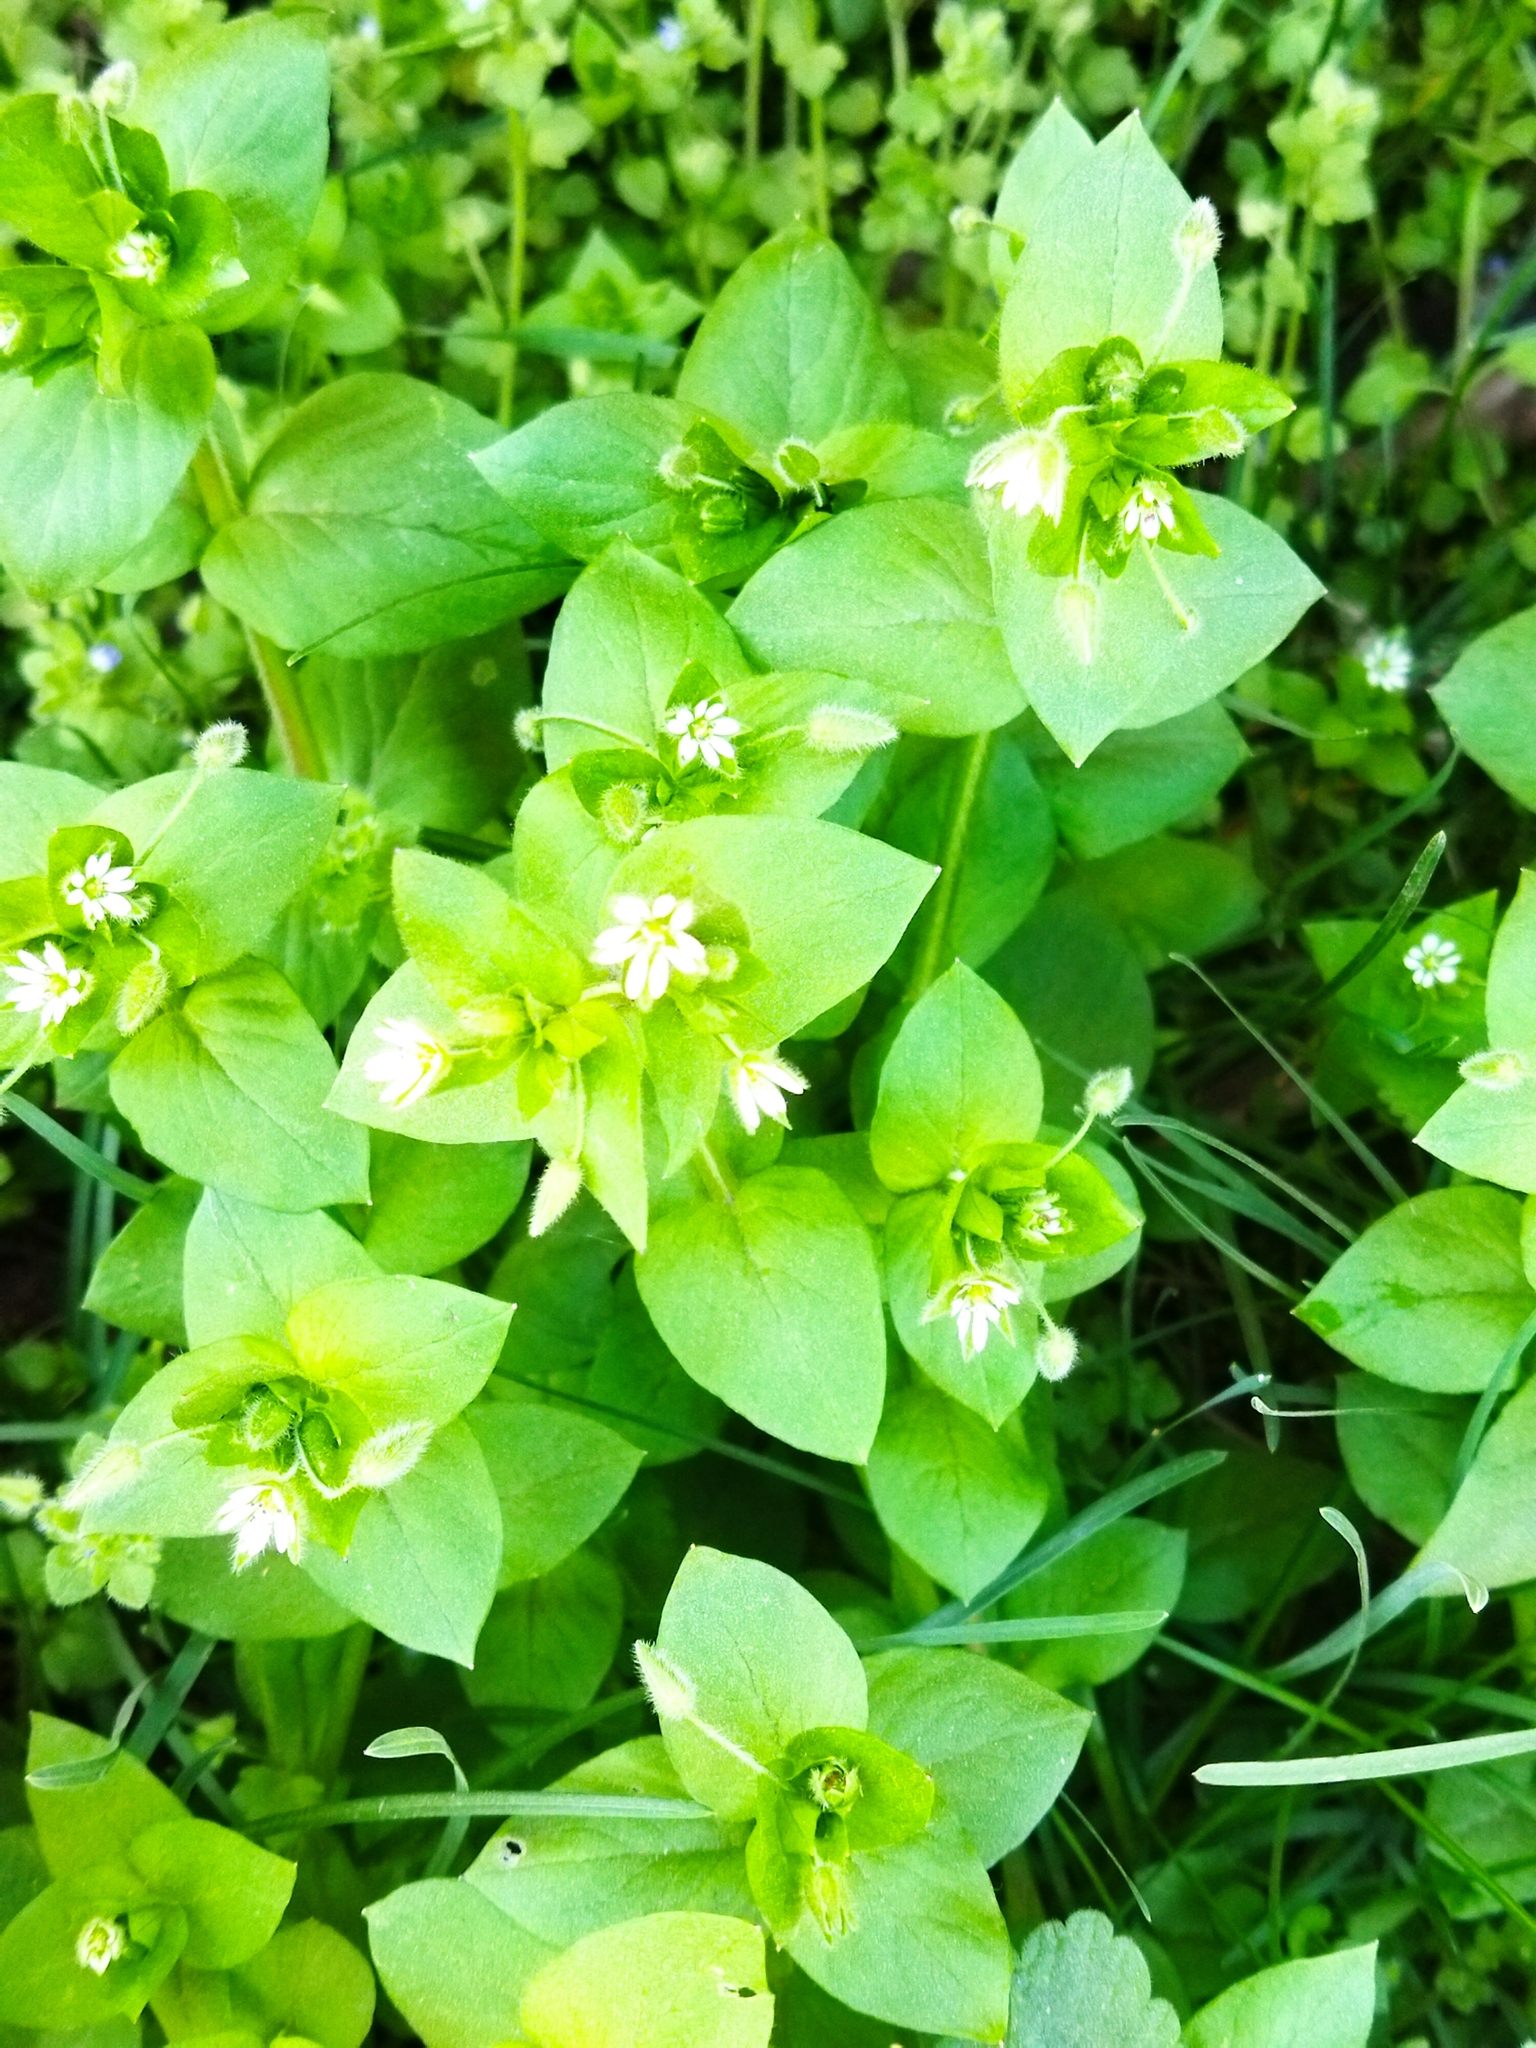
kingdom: Plantae
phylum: Tracheophyta
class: Magnoliopsida
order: Caryophyllales
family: Caryophyllaceae
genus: Stellaria
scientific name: Stellaria media
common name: Common chickweed
